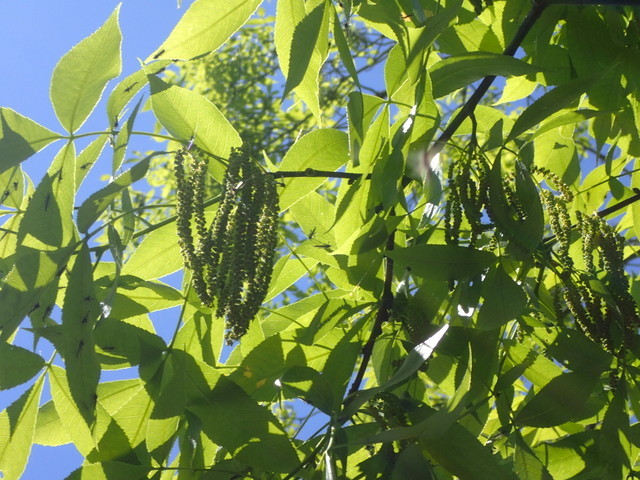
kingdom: Plantae
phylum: Tracheophyta
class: Magnoliopsida
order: Fagales
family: Juglandaceae
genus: Carya
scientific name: Carya glabra
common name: Pignut hickory
